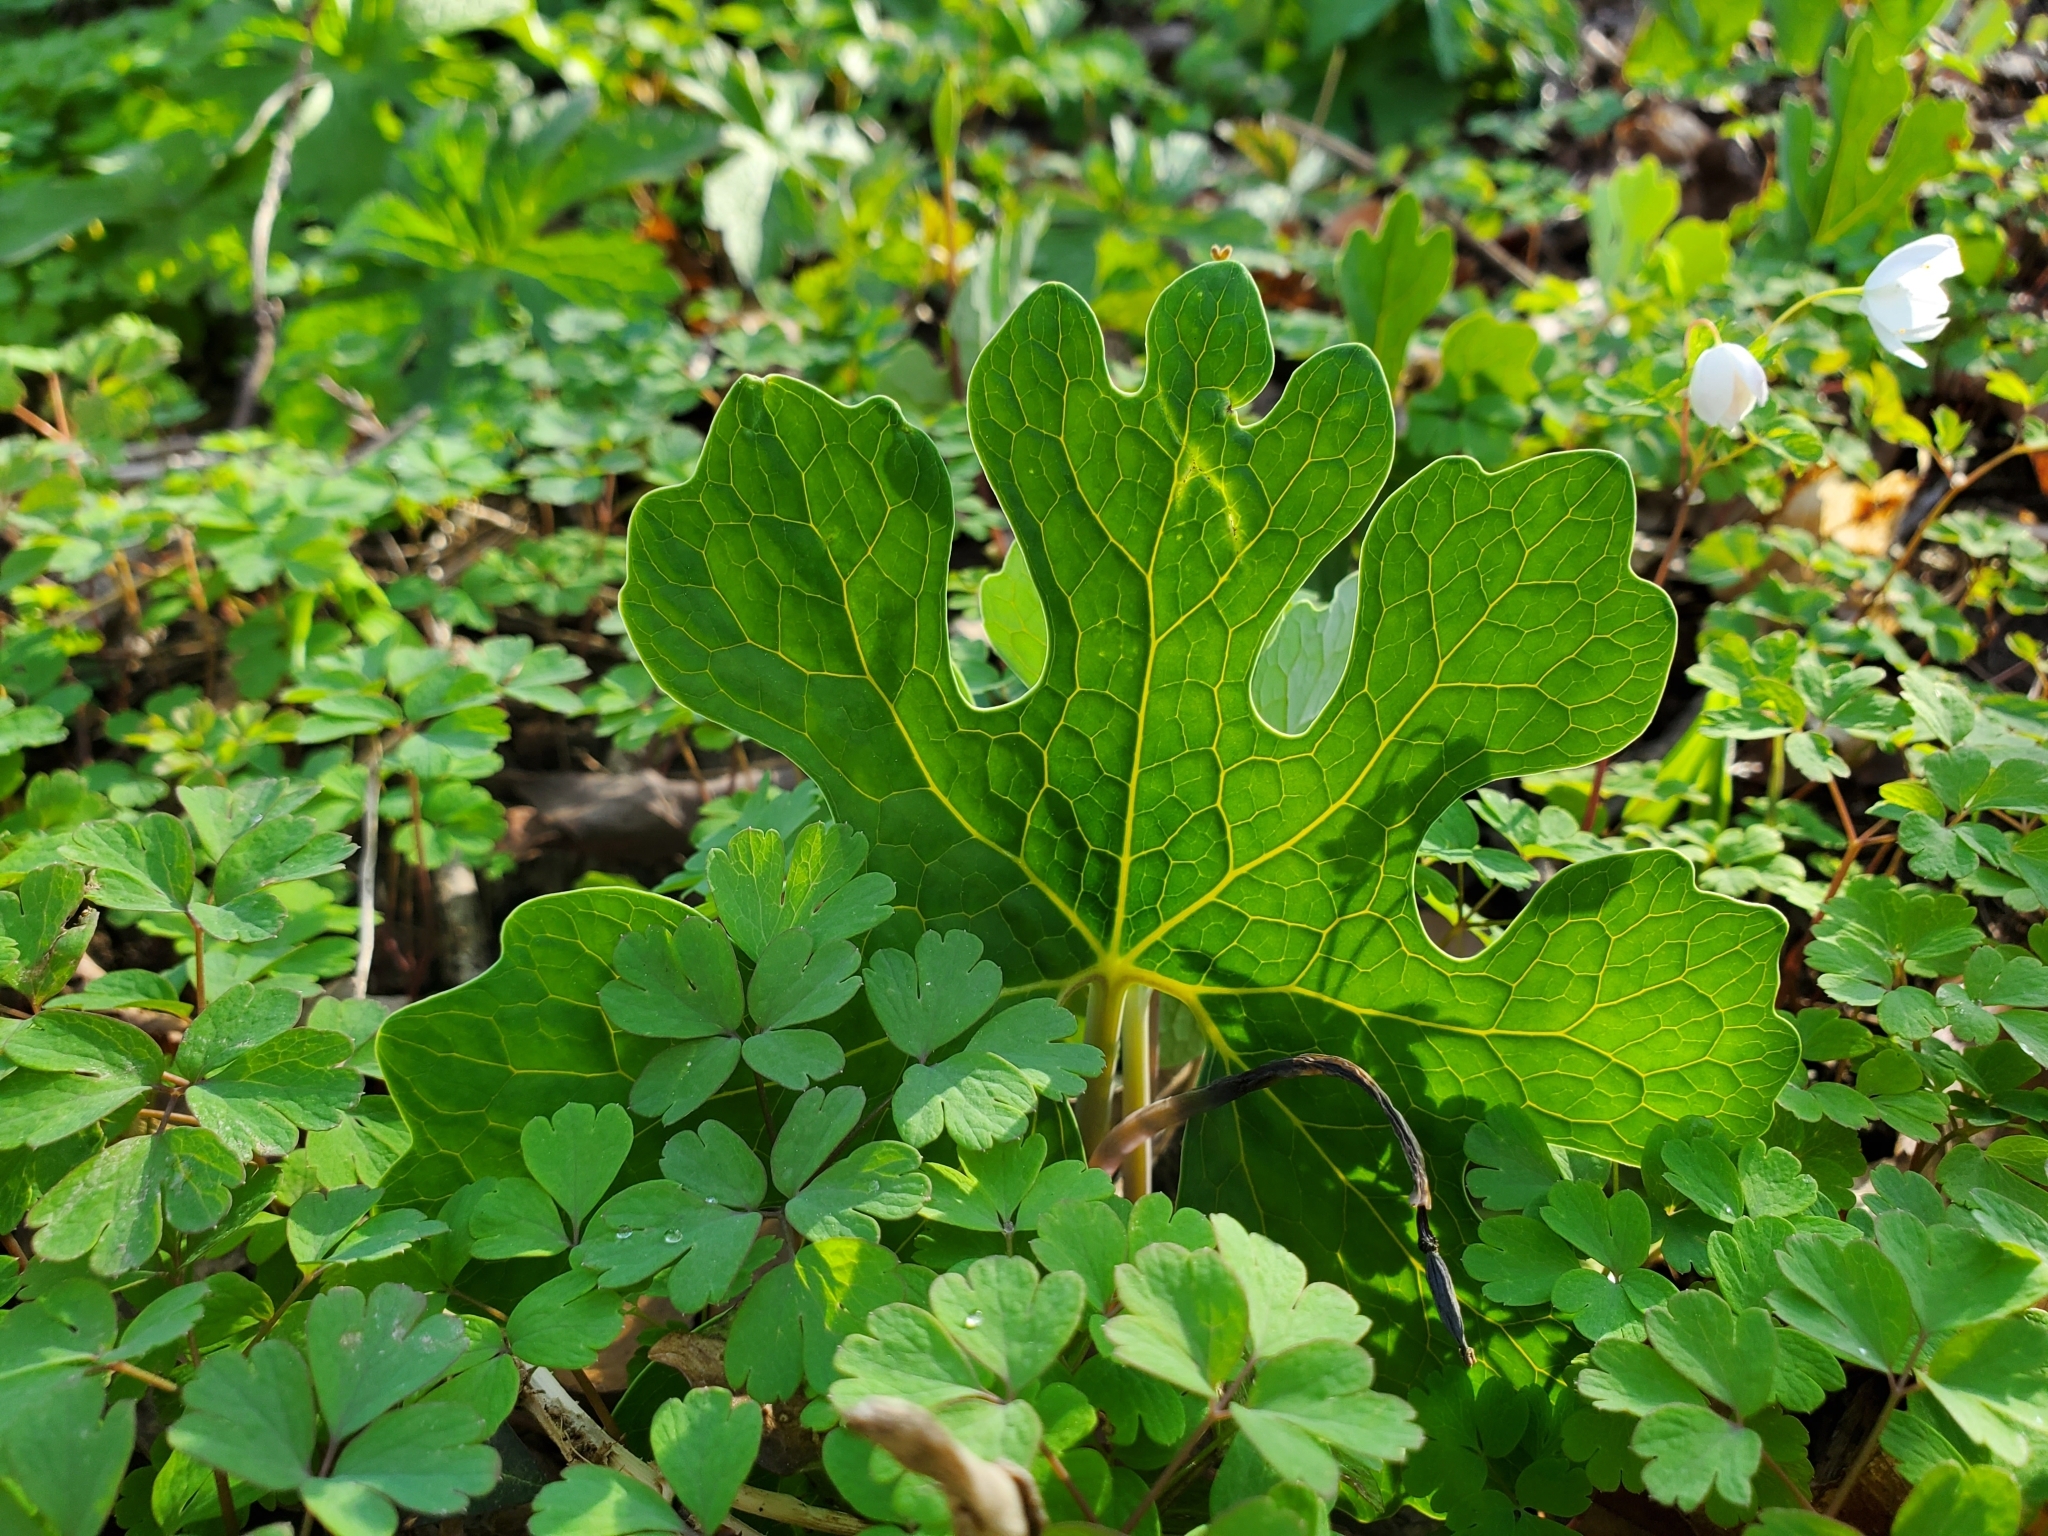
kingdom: Plantae
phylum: Tracheophyta
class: Magnoliopsida
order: Ranunculales
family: Papaveraceae
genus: Sanguinaria
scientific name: Sanguinaria canadensis
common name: Bloodroot
